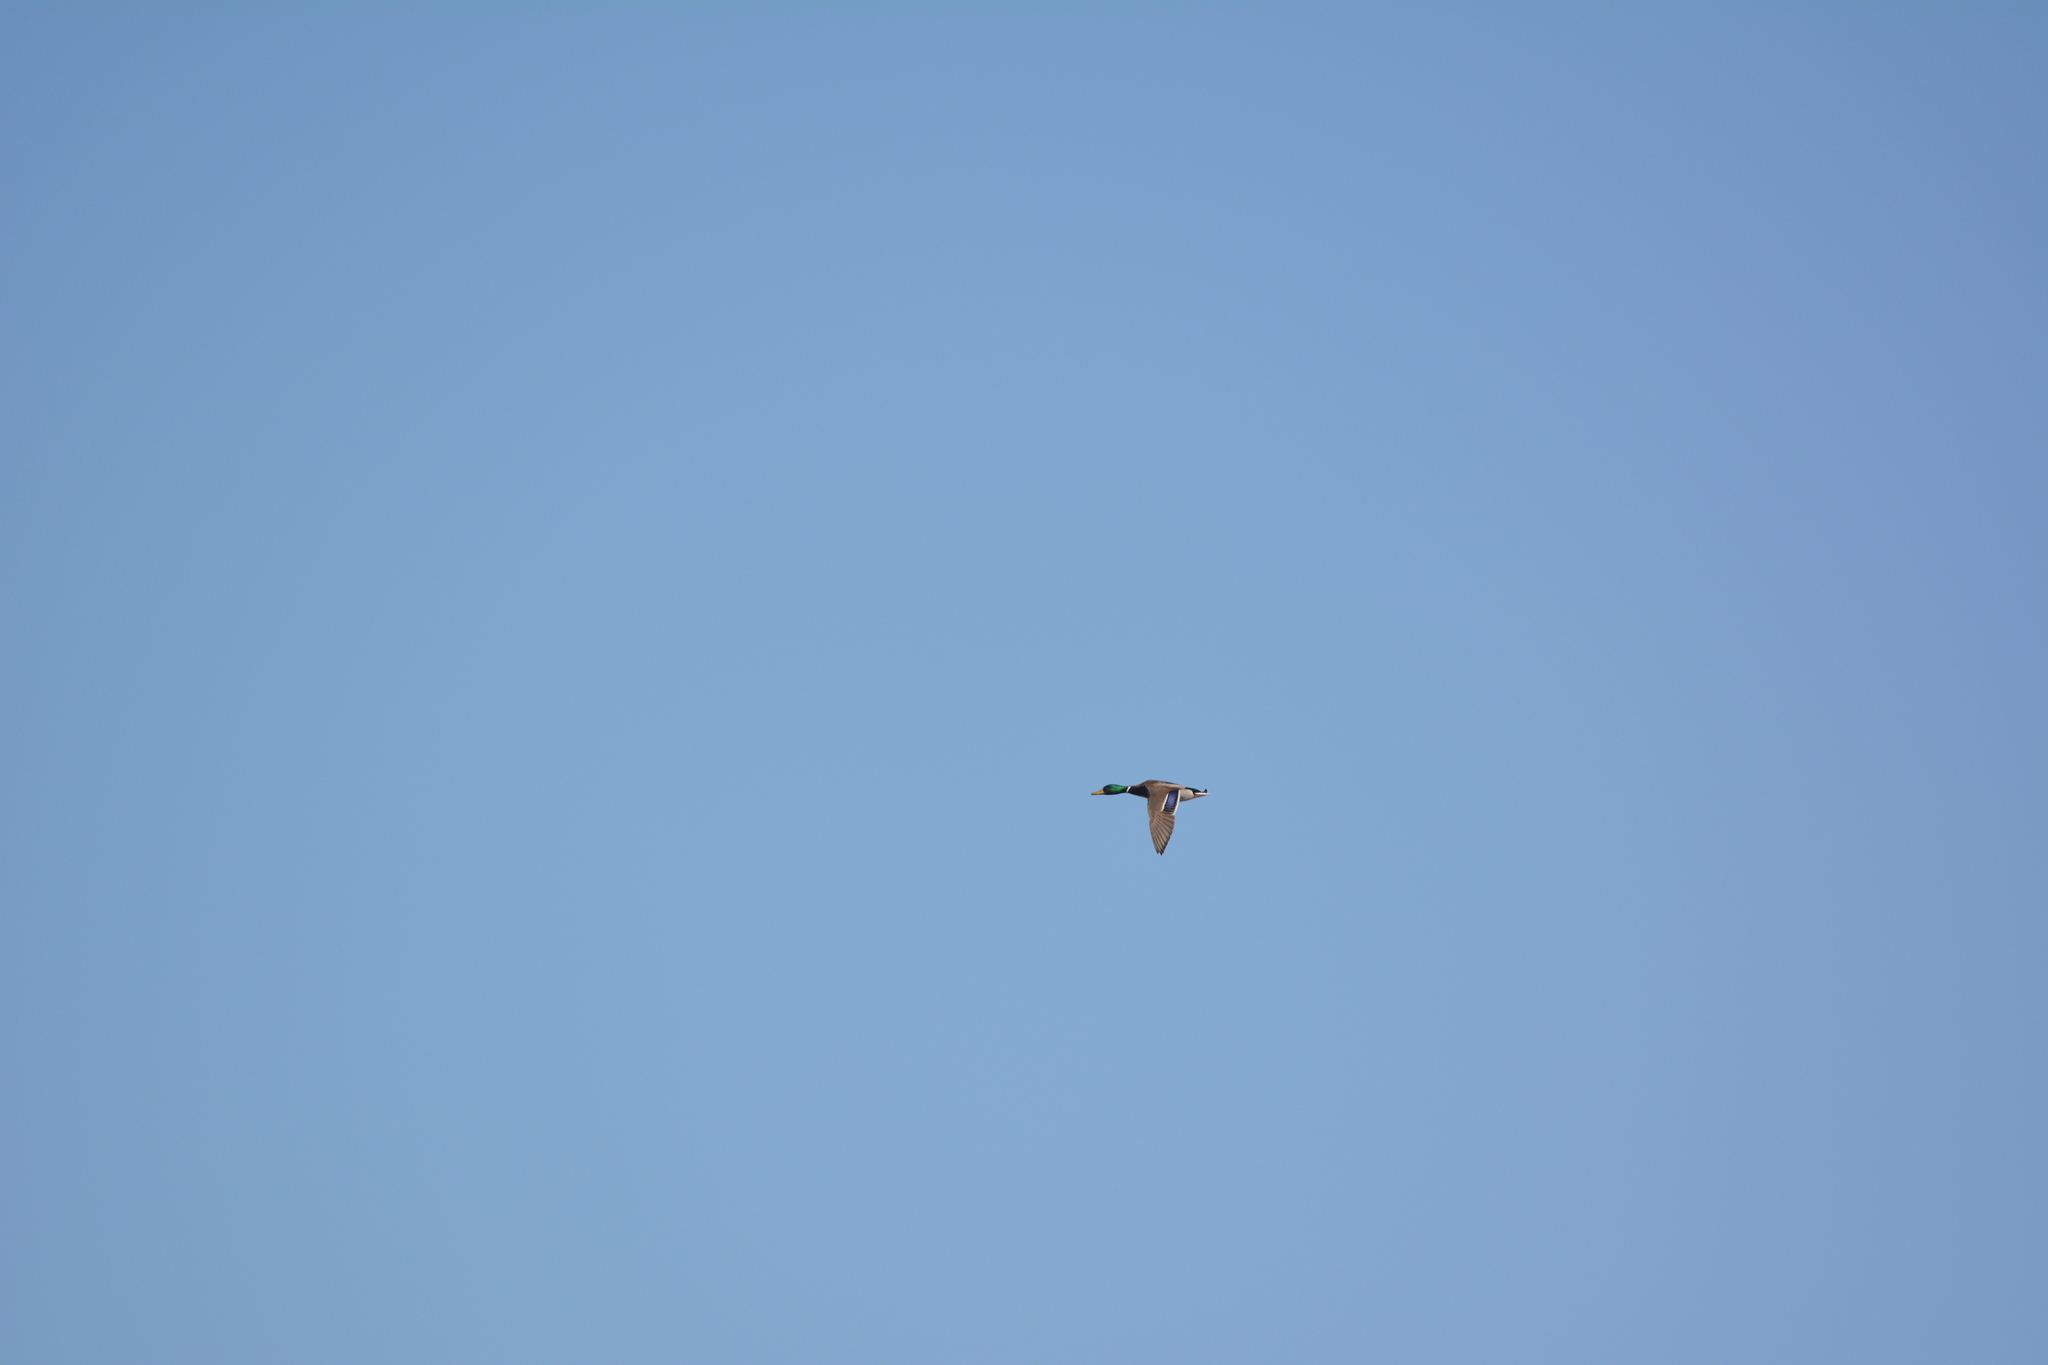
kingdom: Animalia
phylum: Chordata
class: Aves
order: Anseriformes
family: Anatidae
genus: Anas
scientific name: Anas platyrhynchos
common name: Mallard
